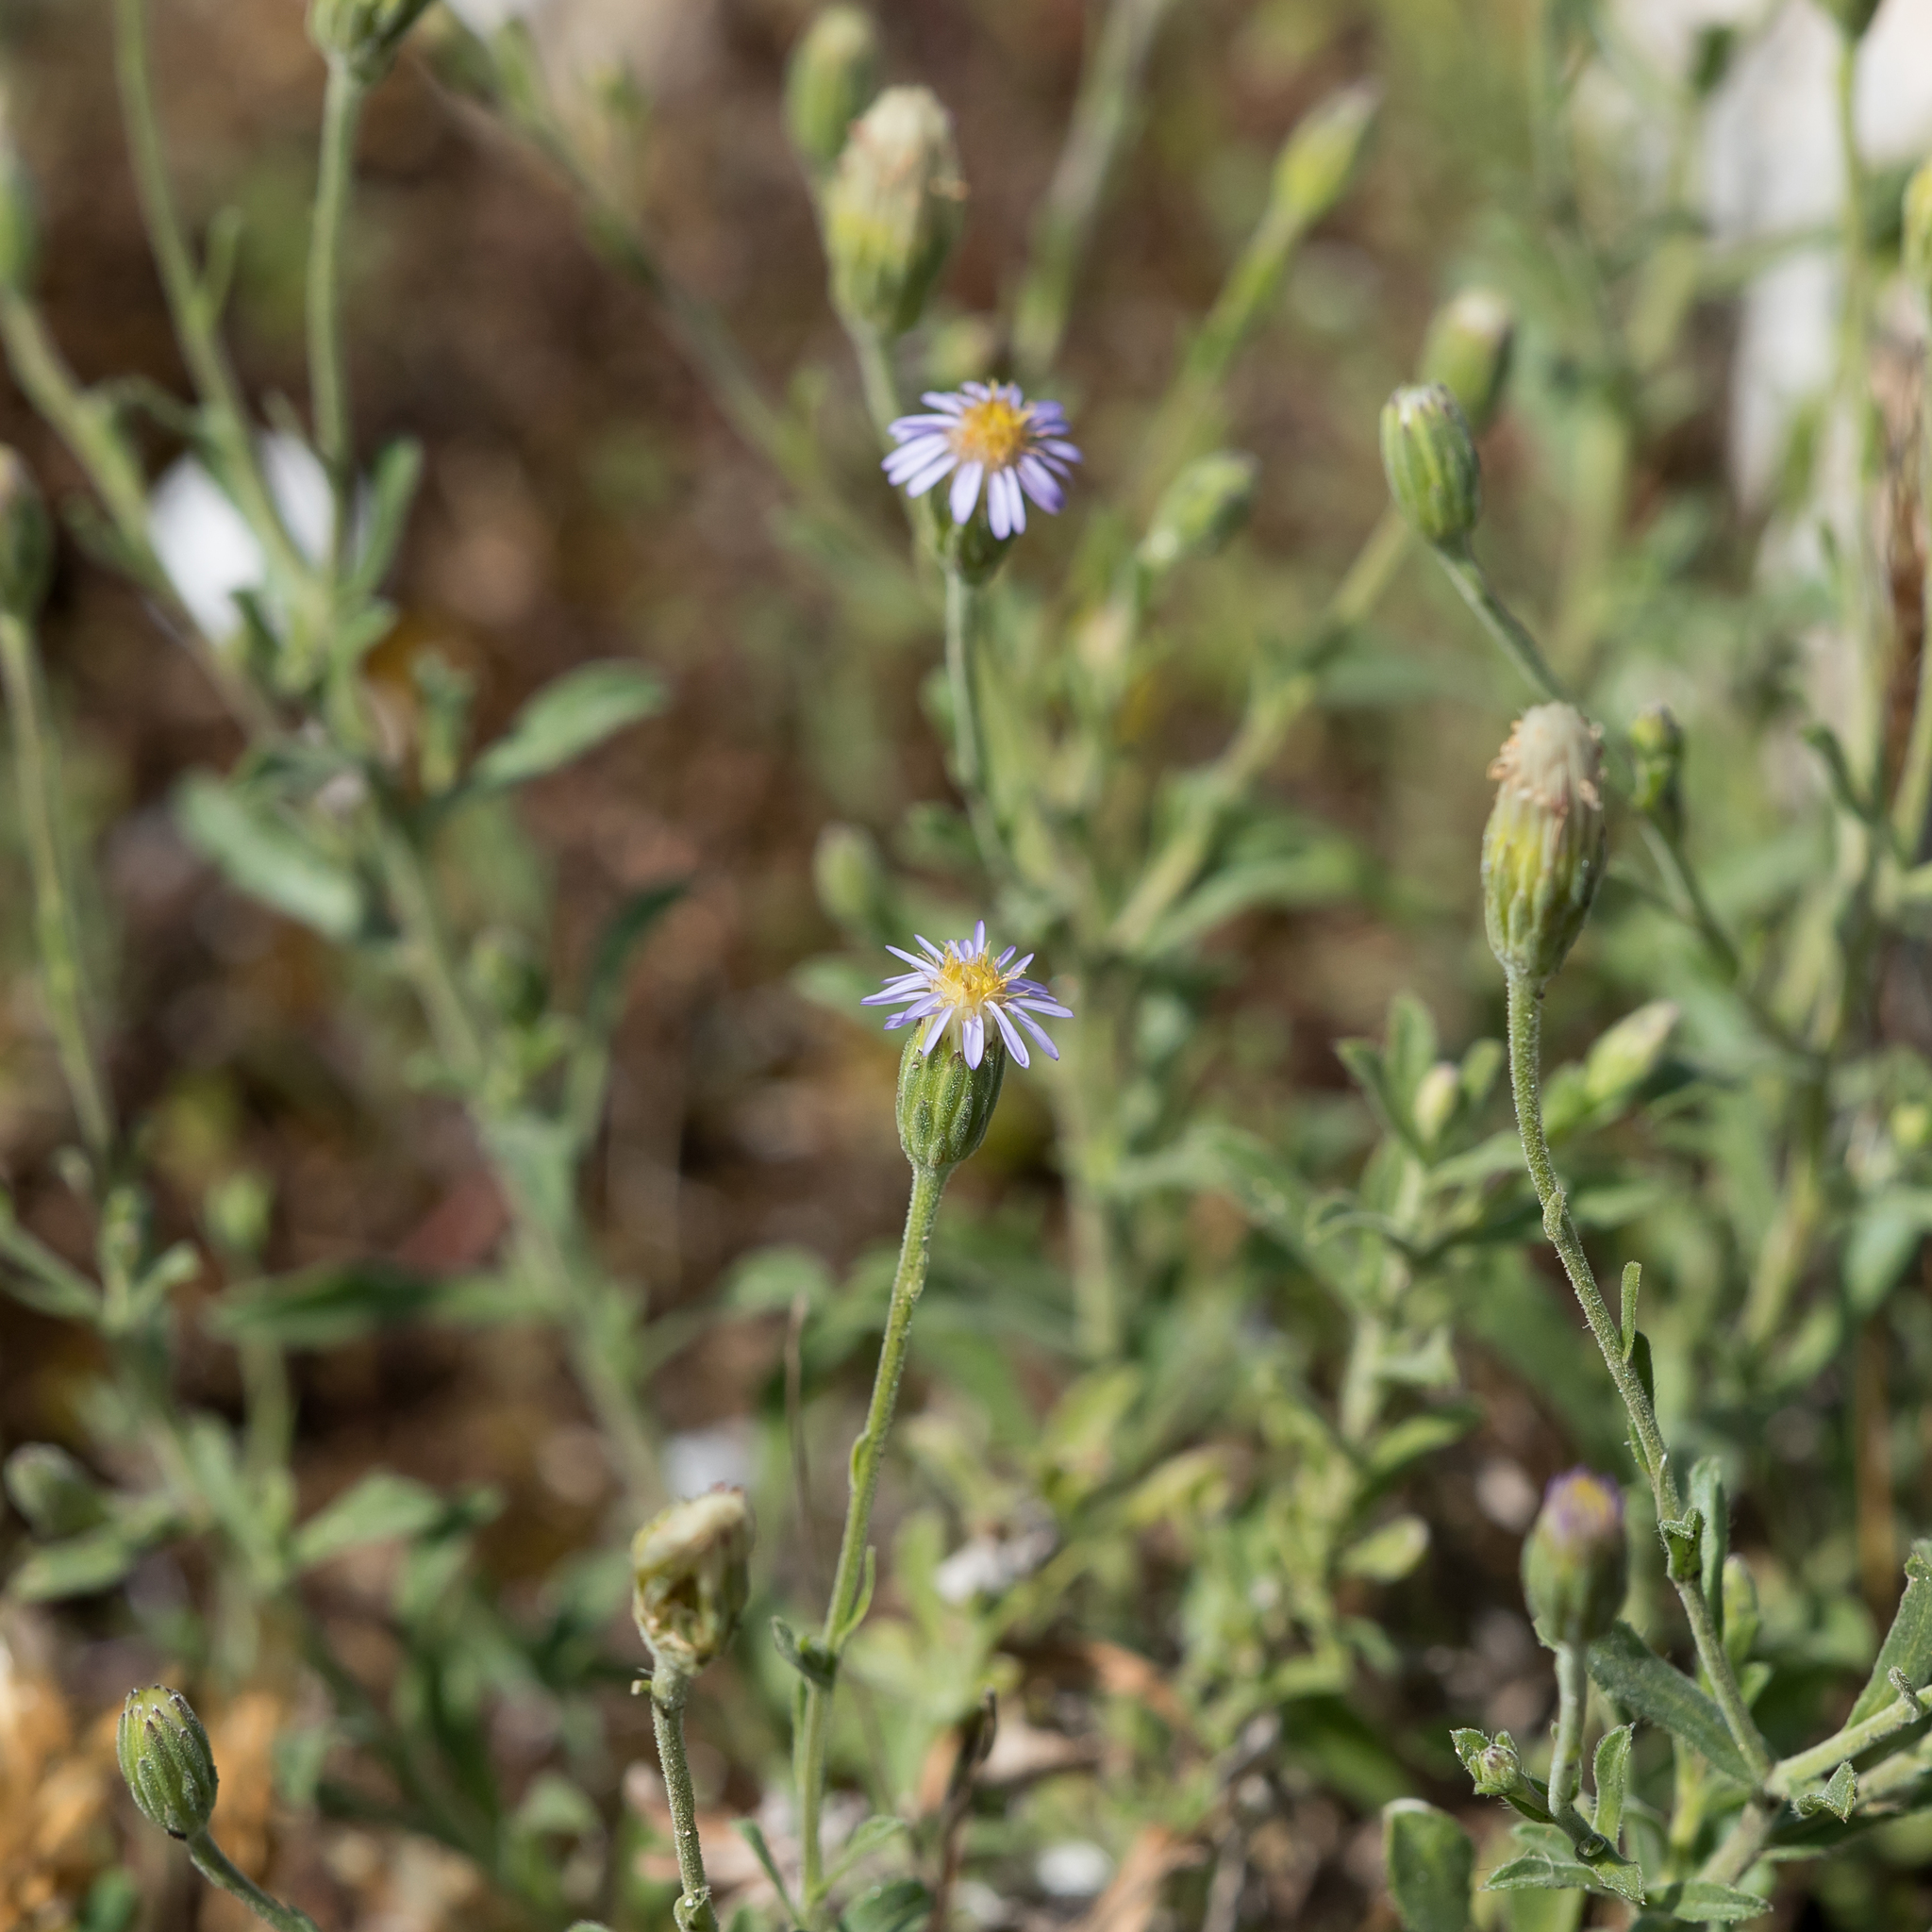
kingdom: Plantae
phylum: Tracheophyta
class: Magnoliopsida
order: Asterales
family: Asteraceae
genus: Vittadinia
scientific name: Vittadinia australasica
